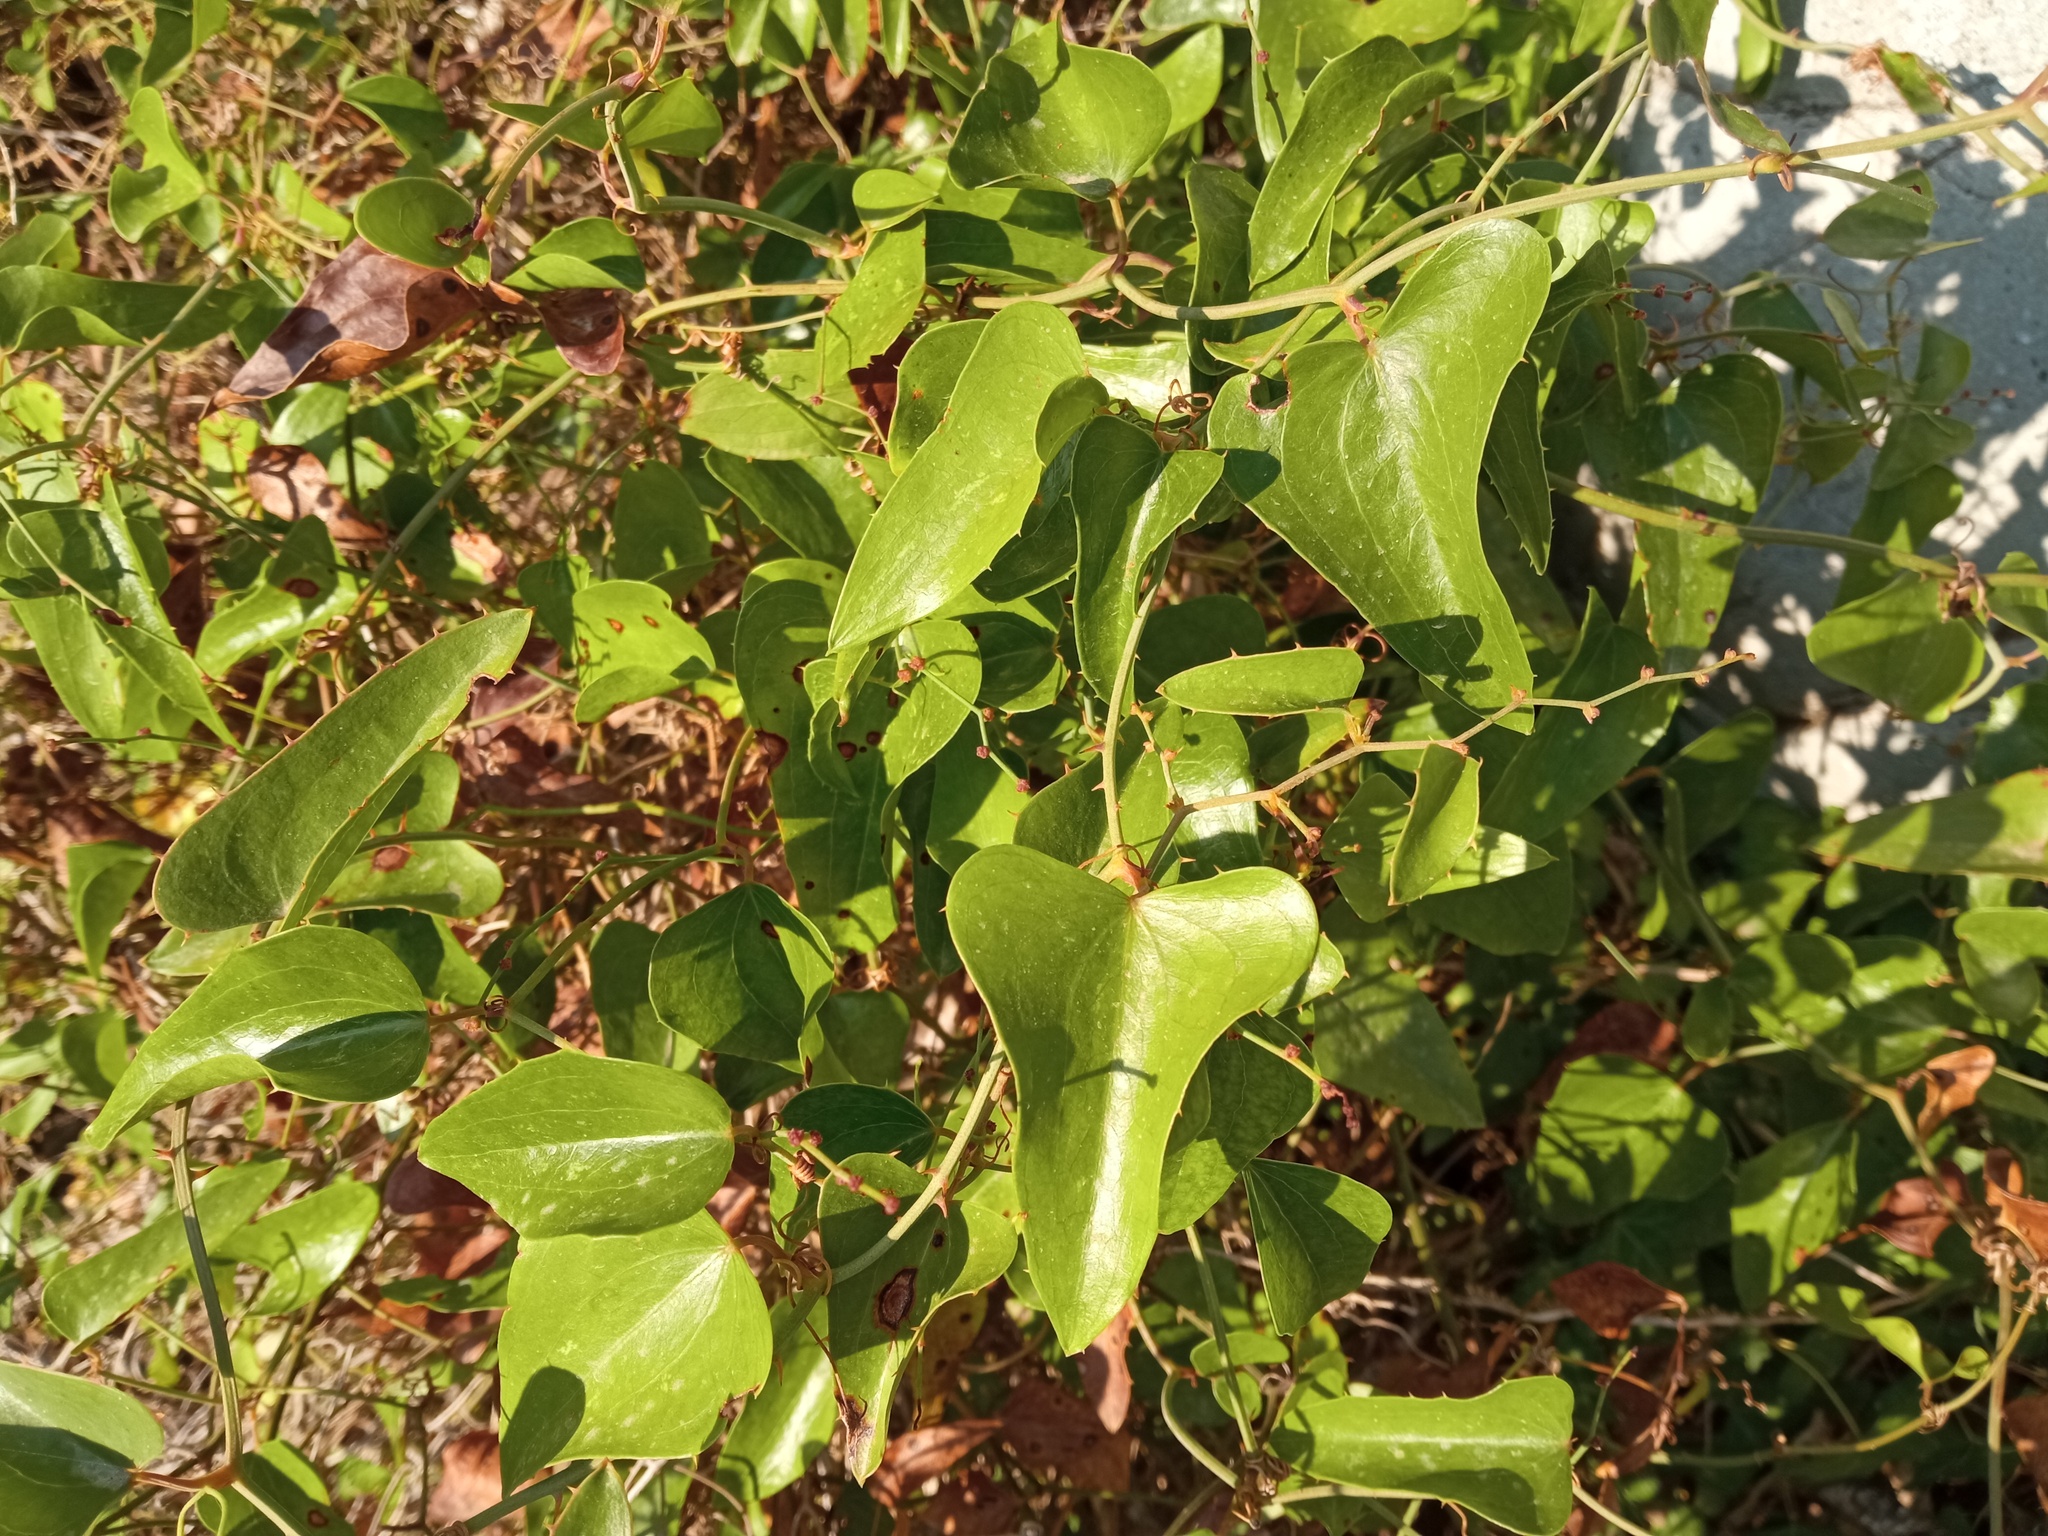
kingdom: Plantae
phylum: Tracheophyta
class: Liliopsida
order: Liliales
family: Smilacaceae
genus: Smilax
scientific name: Smilax aspera
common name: Common smilax
